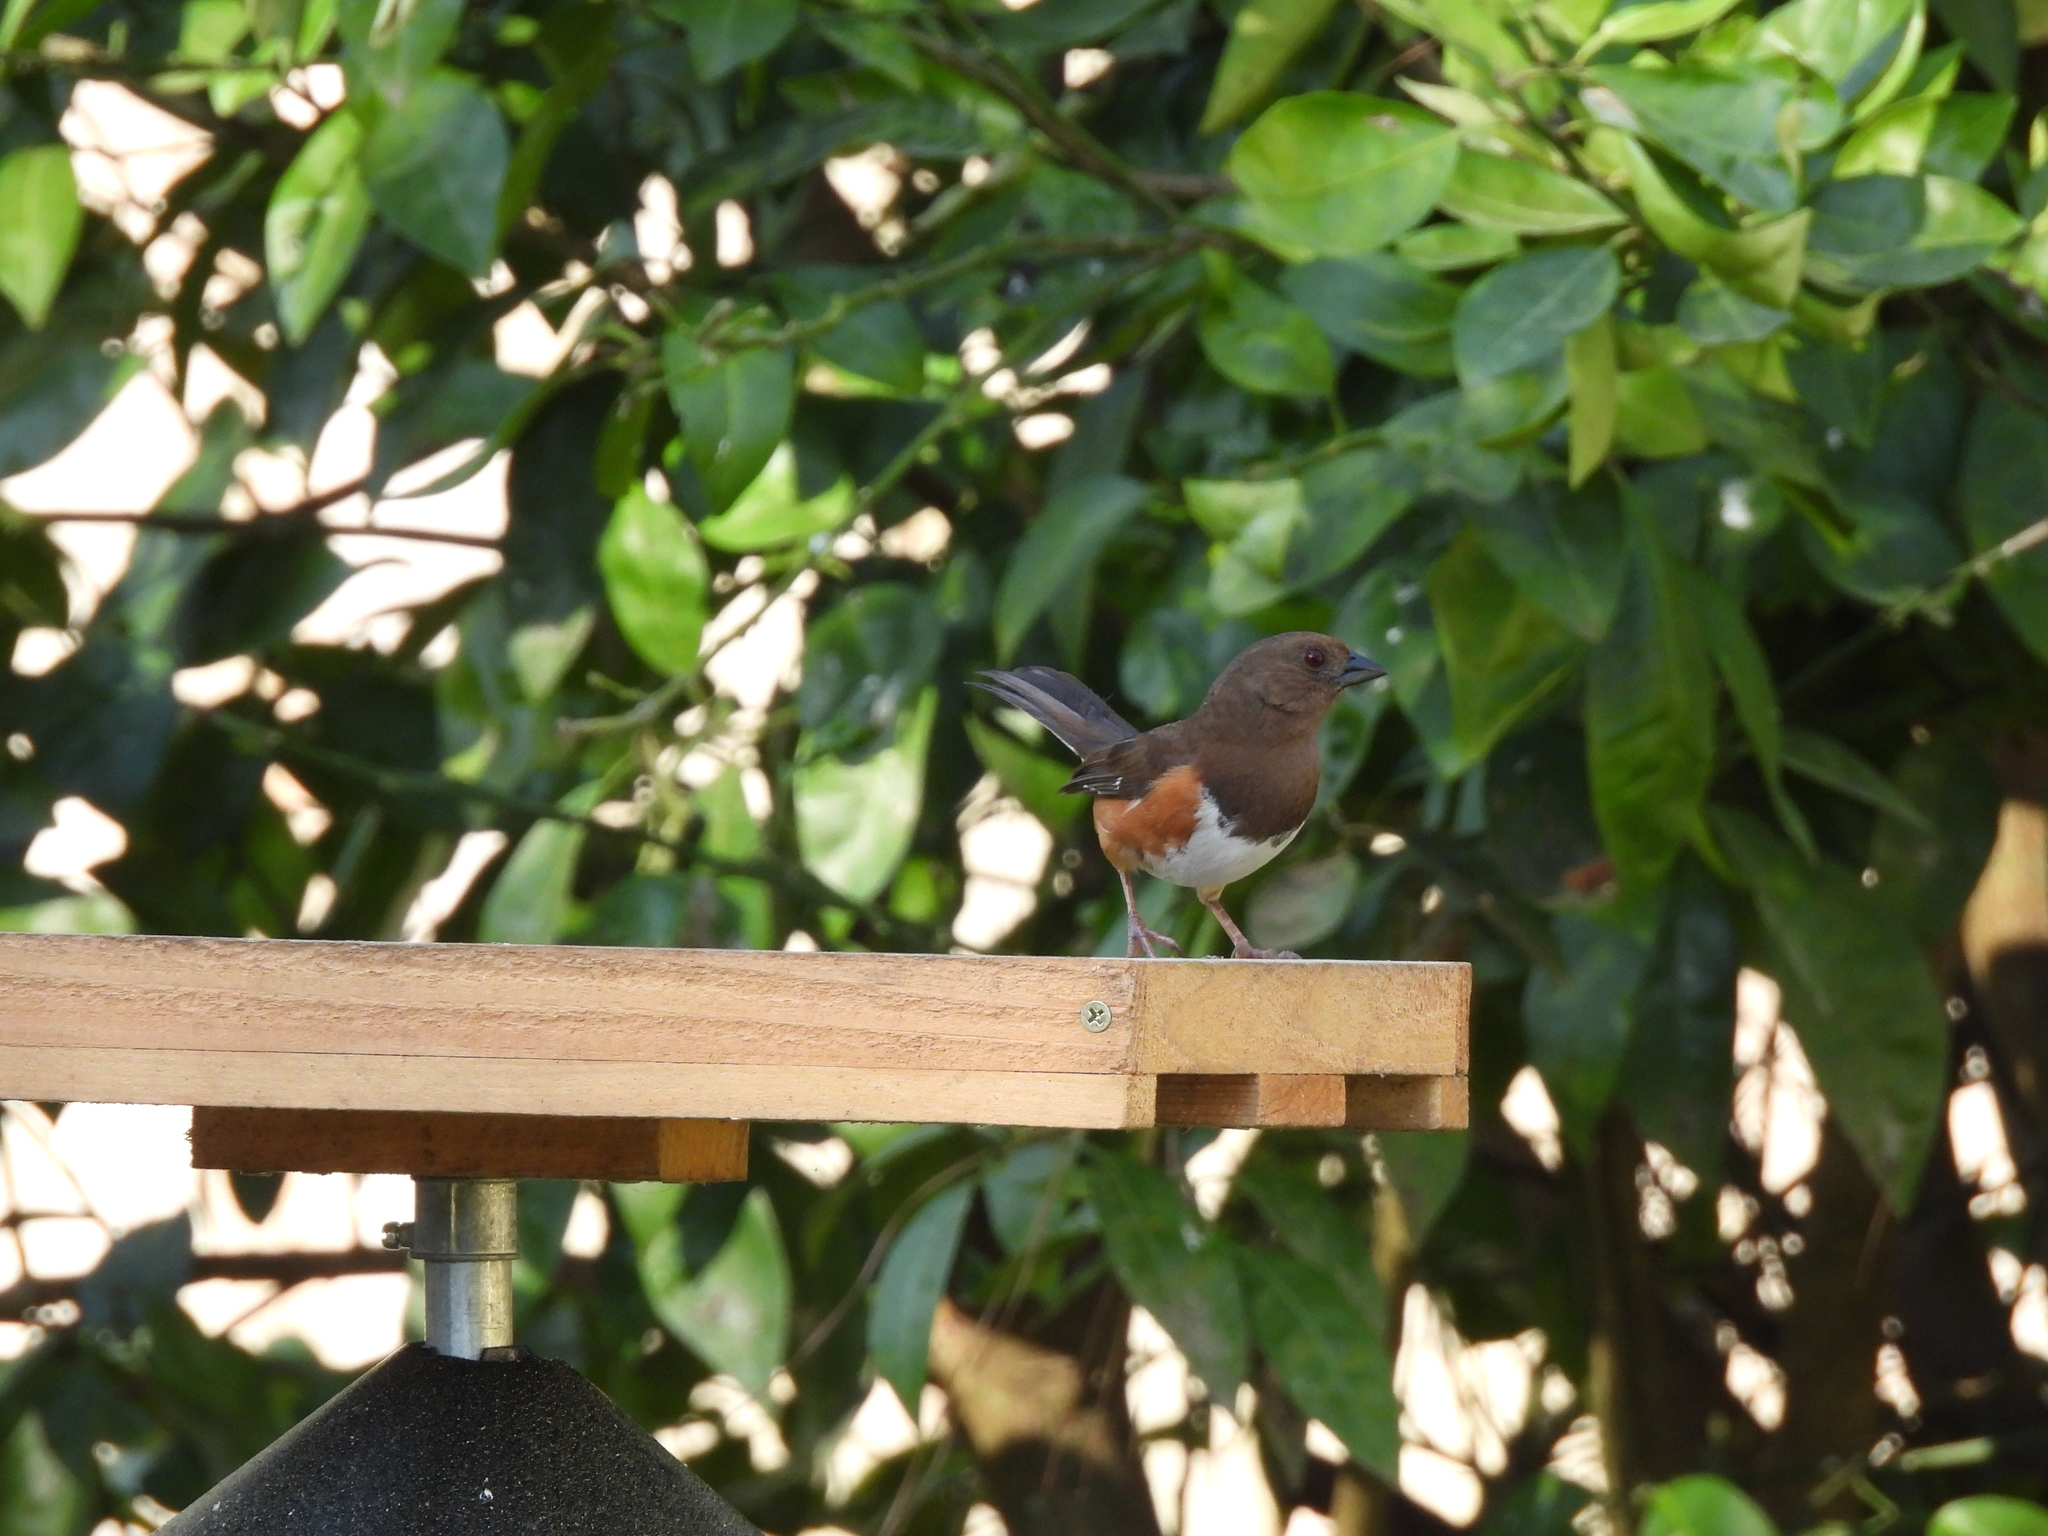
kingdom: Animalia
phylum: Chordata
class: Aves
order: Passeriformes
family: Passerellidae
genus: Pipilo
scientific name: Pipilo erythrophthalmus
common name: Eastern towhee
